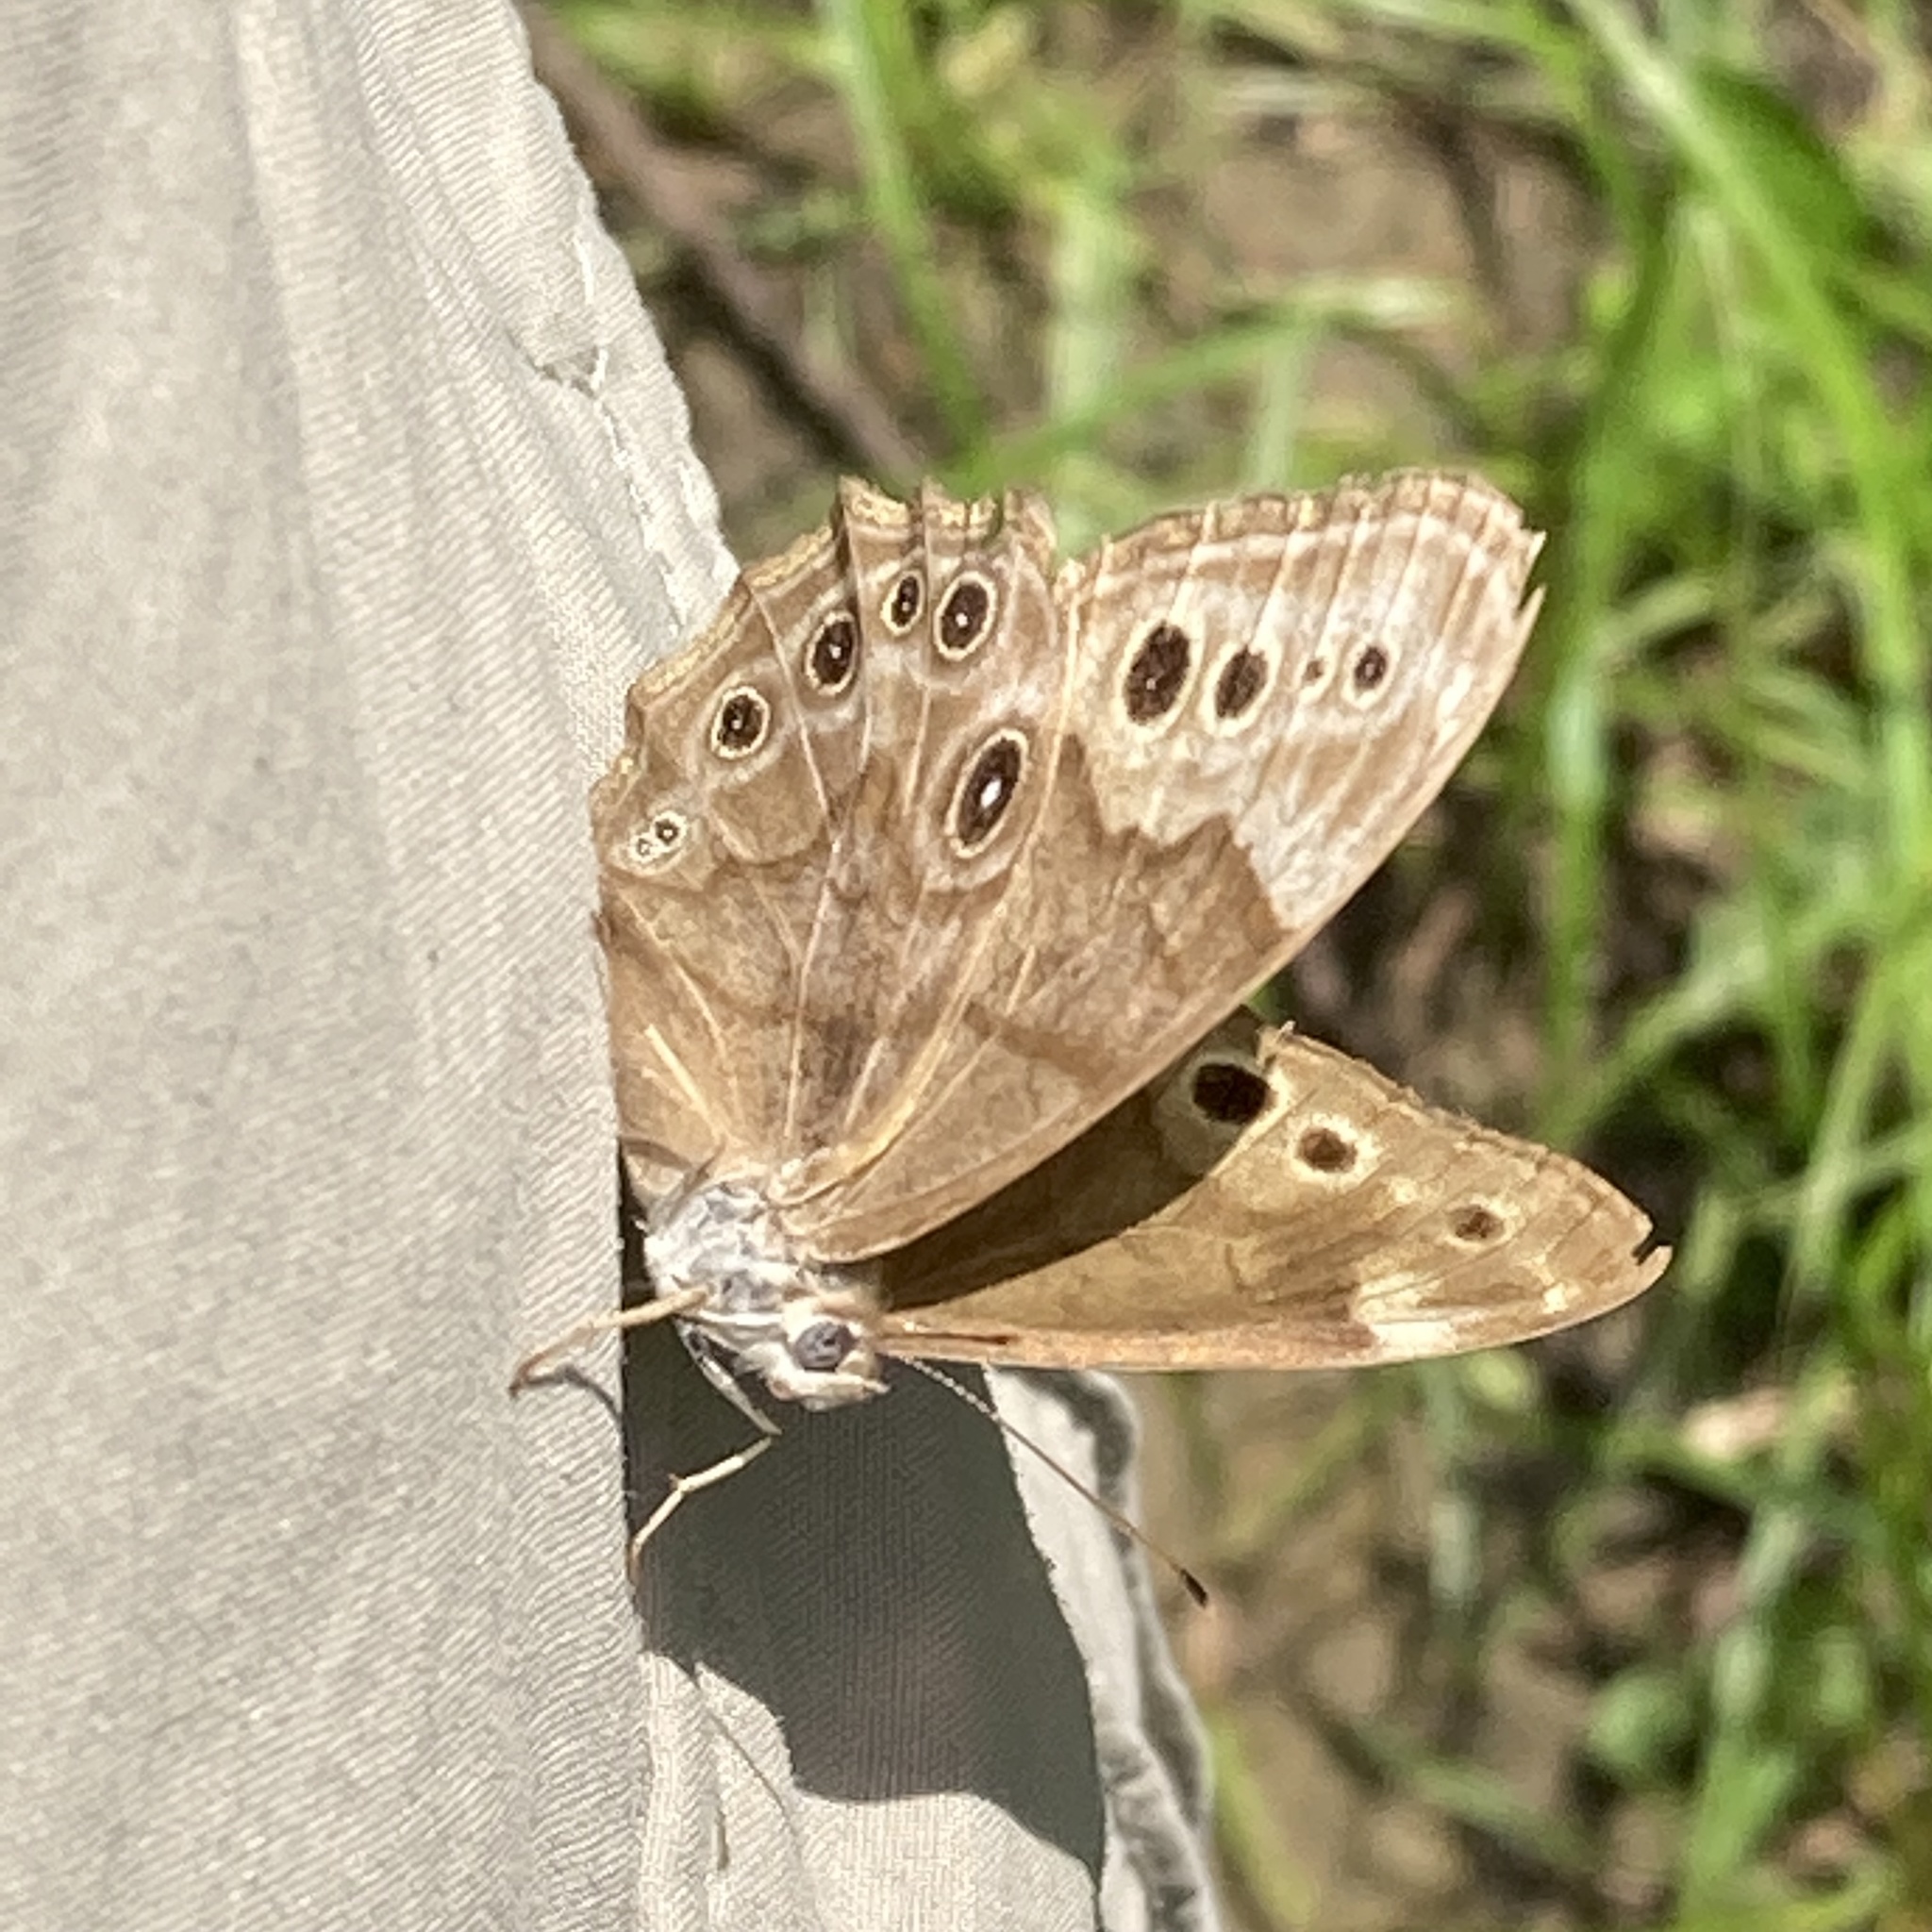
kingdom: Animalia
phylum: Arthropoda
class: Insecta
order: Lepidoptera
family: Nymphalidae
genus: Lethe
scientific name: Lethe anthedon
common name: Northern pearly-eye
